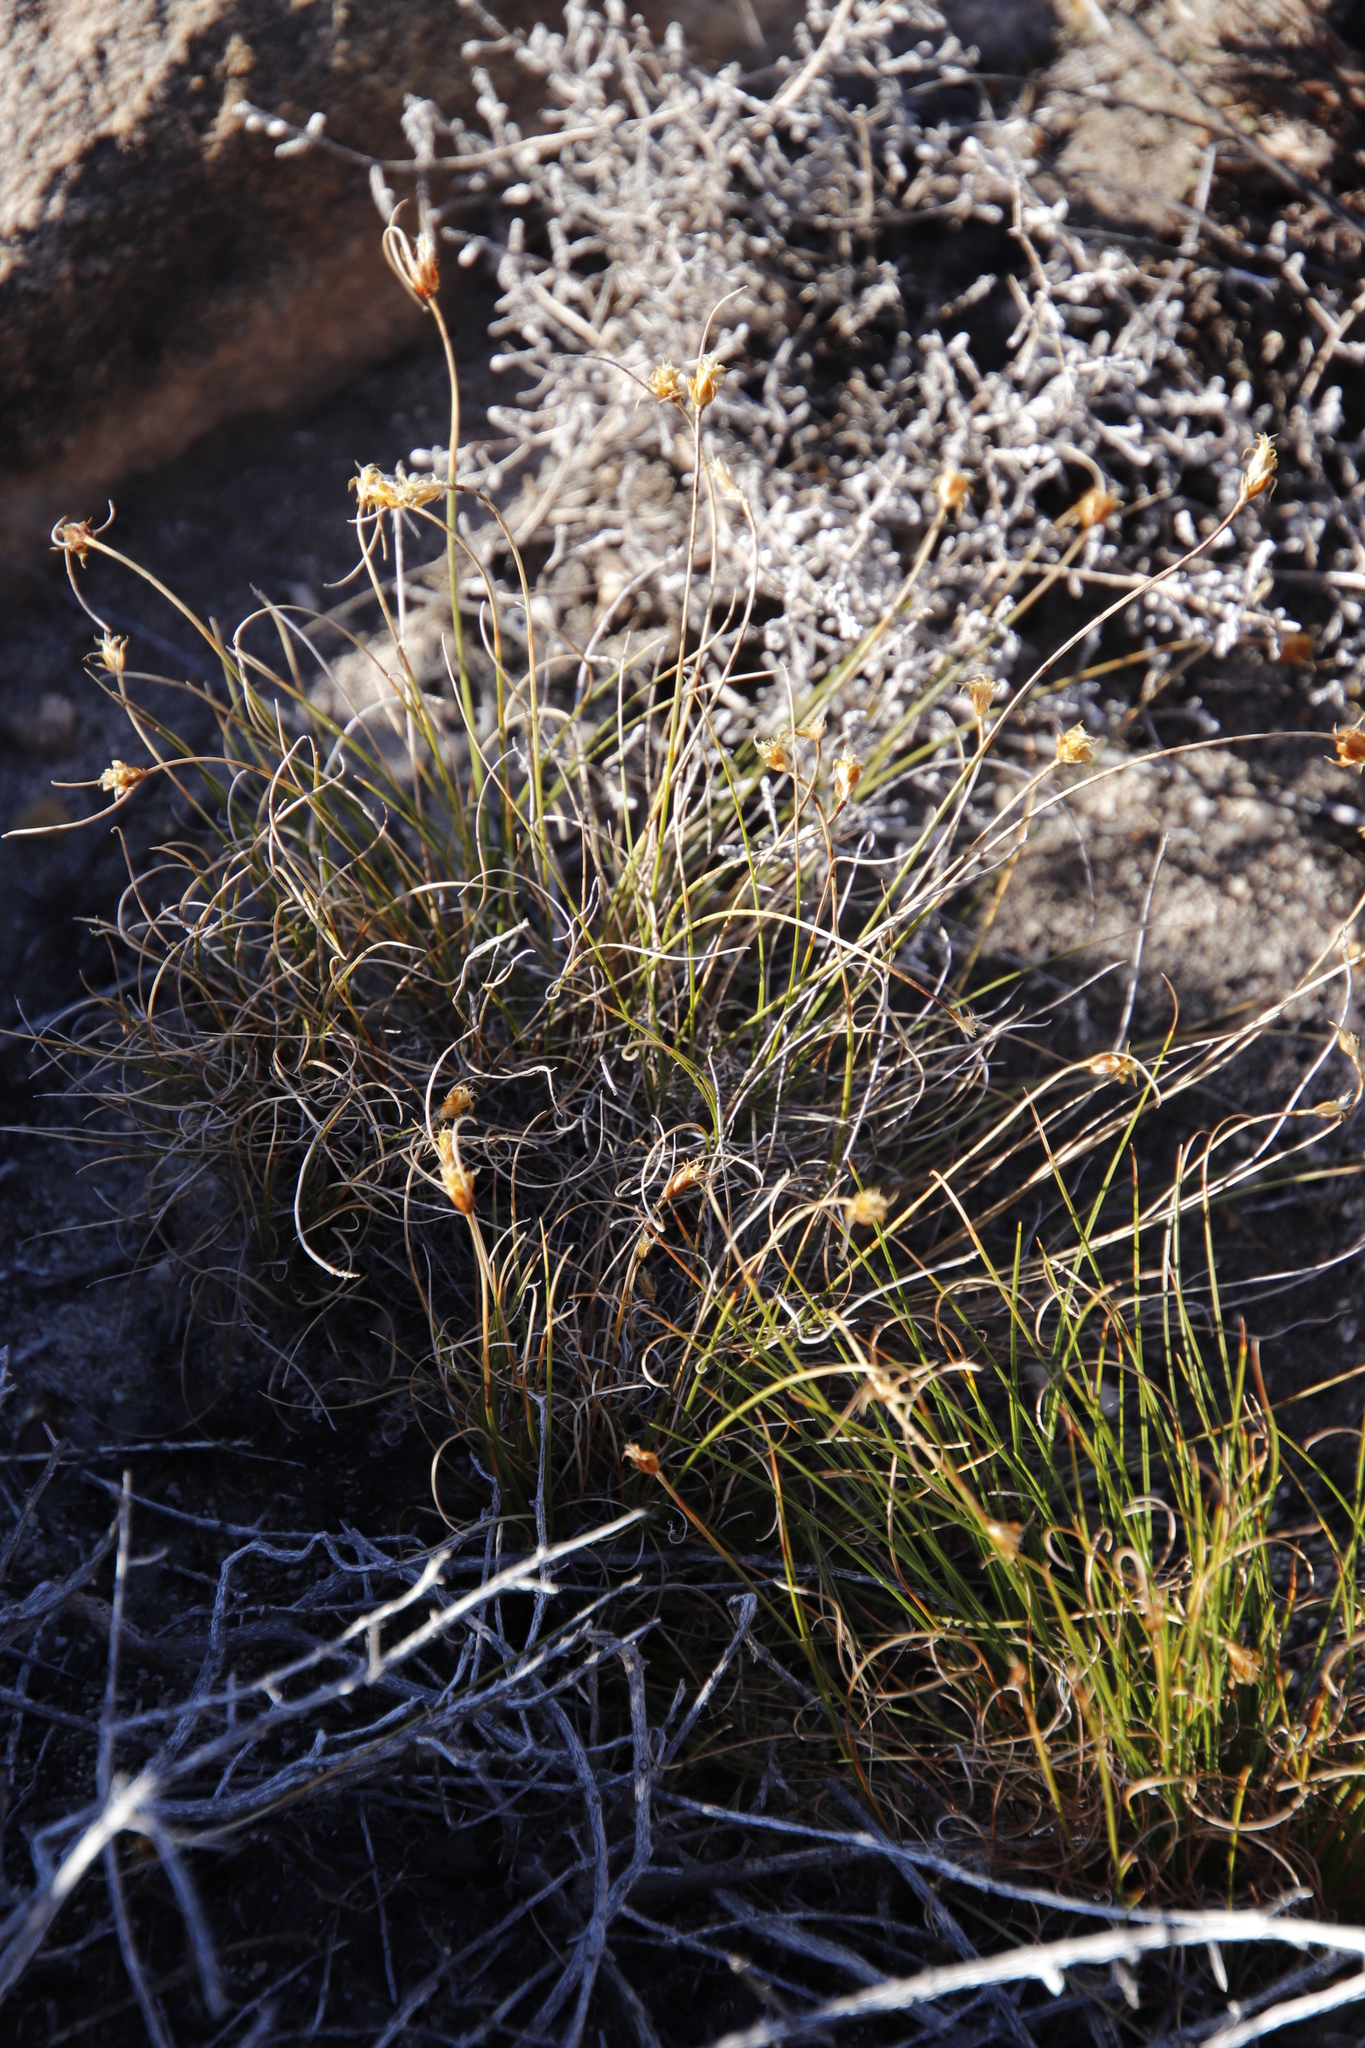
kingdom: Plantae
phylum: Tracheophyta
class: Liliopsida
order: Poales
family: Cyperaceae
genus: Ficinia
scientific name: Ficinia nigrescens
